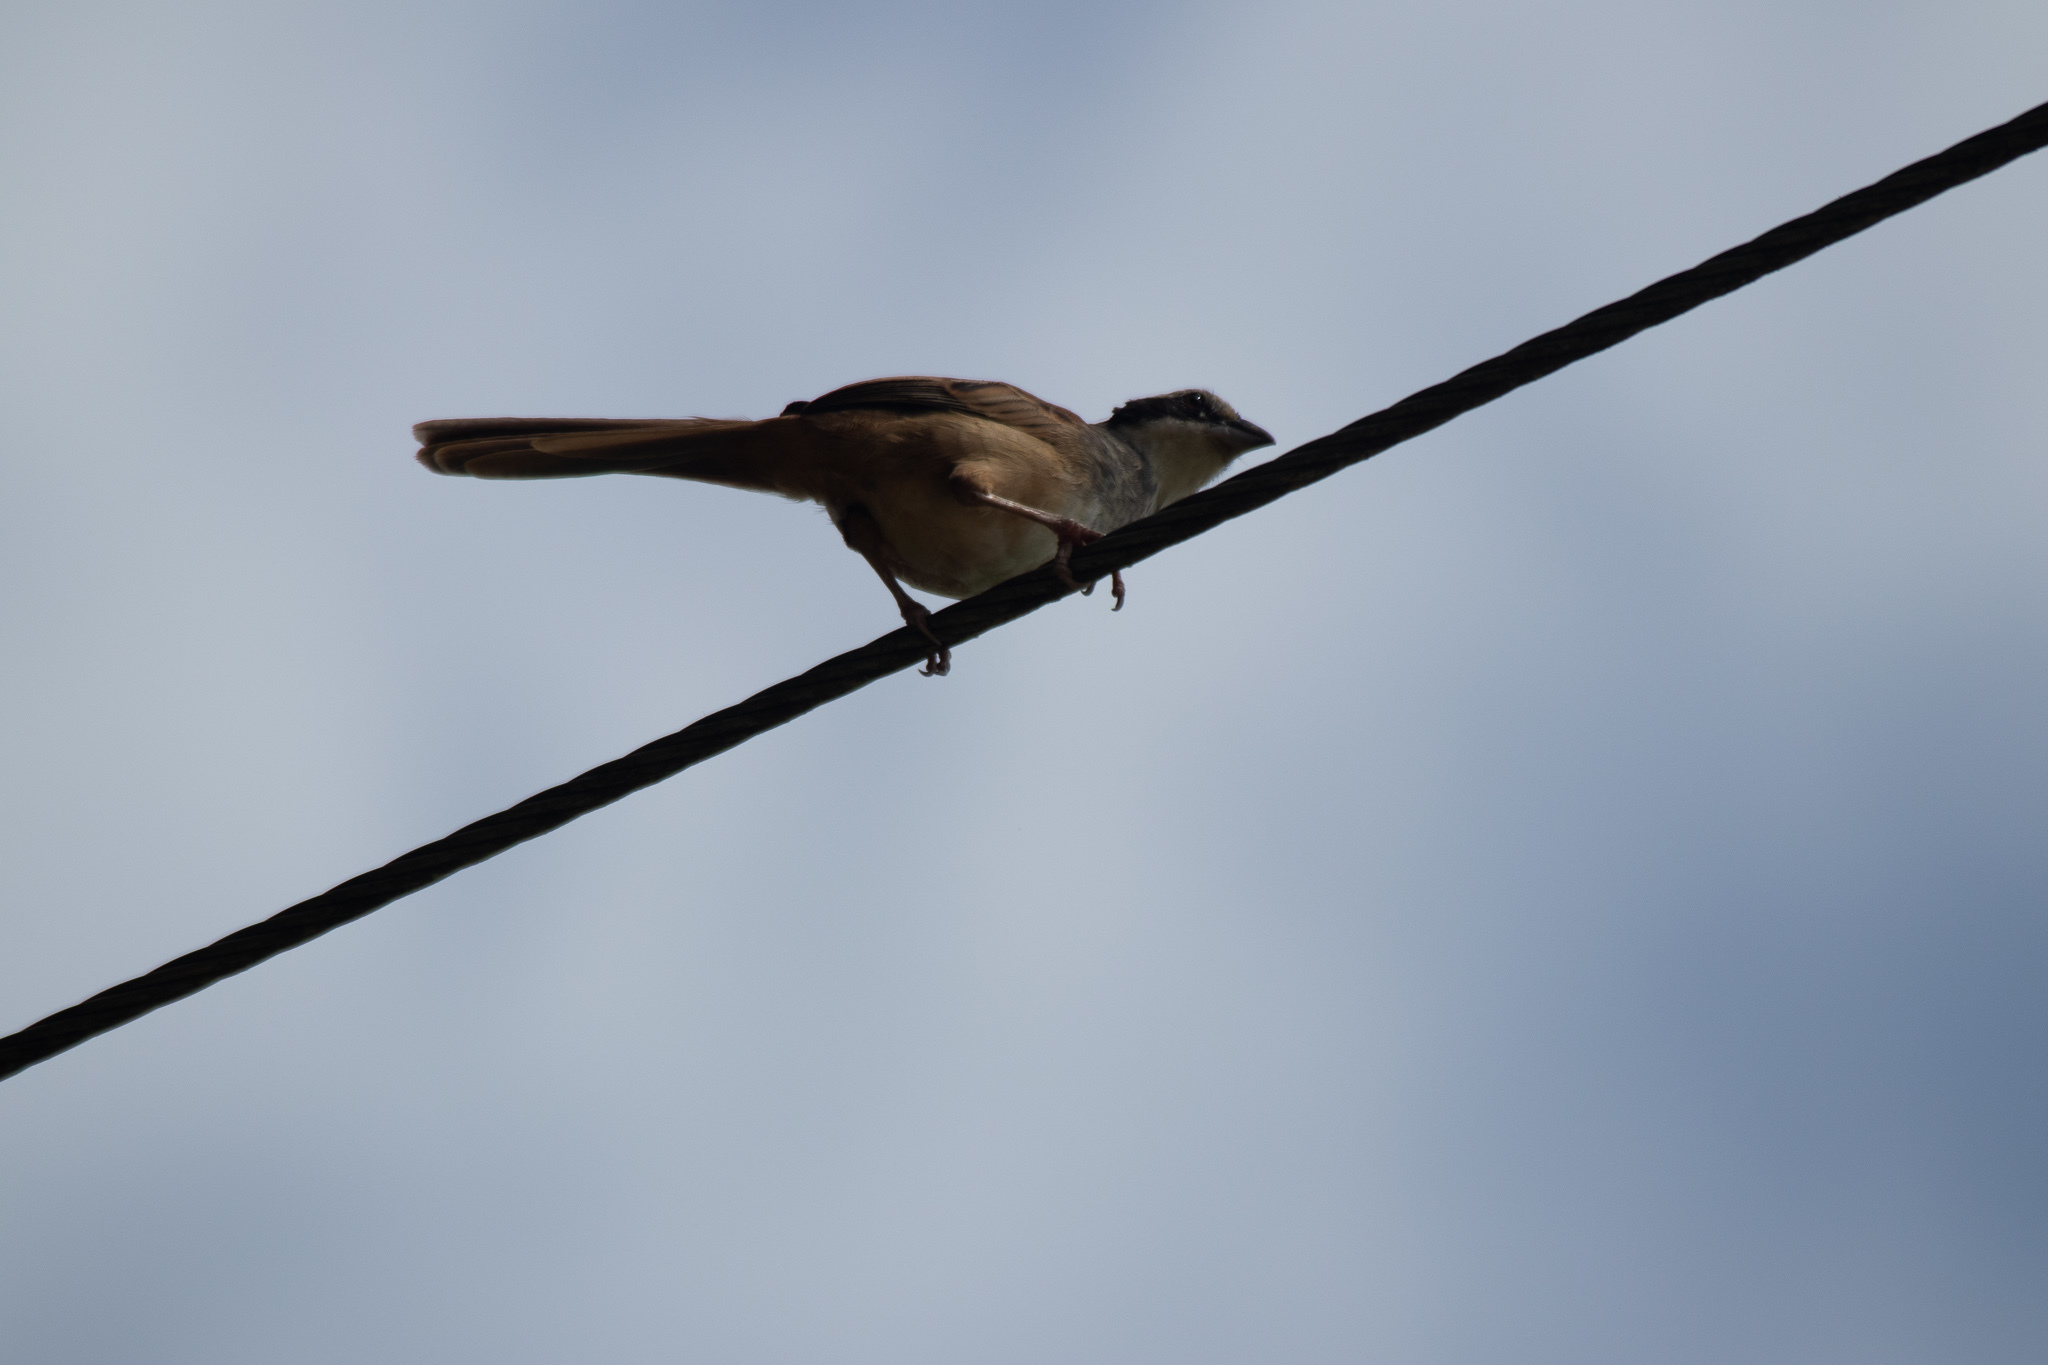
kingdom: Animalia
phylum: Chordata
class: Aves
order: Passeriformes
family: Passerellidae
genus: Peucaea
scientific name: Peucaea ruficauda
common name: Stripe-headed sparrow
